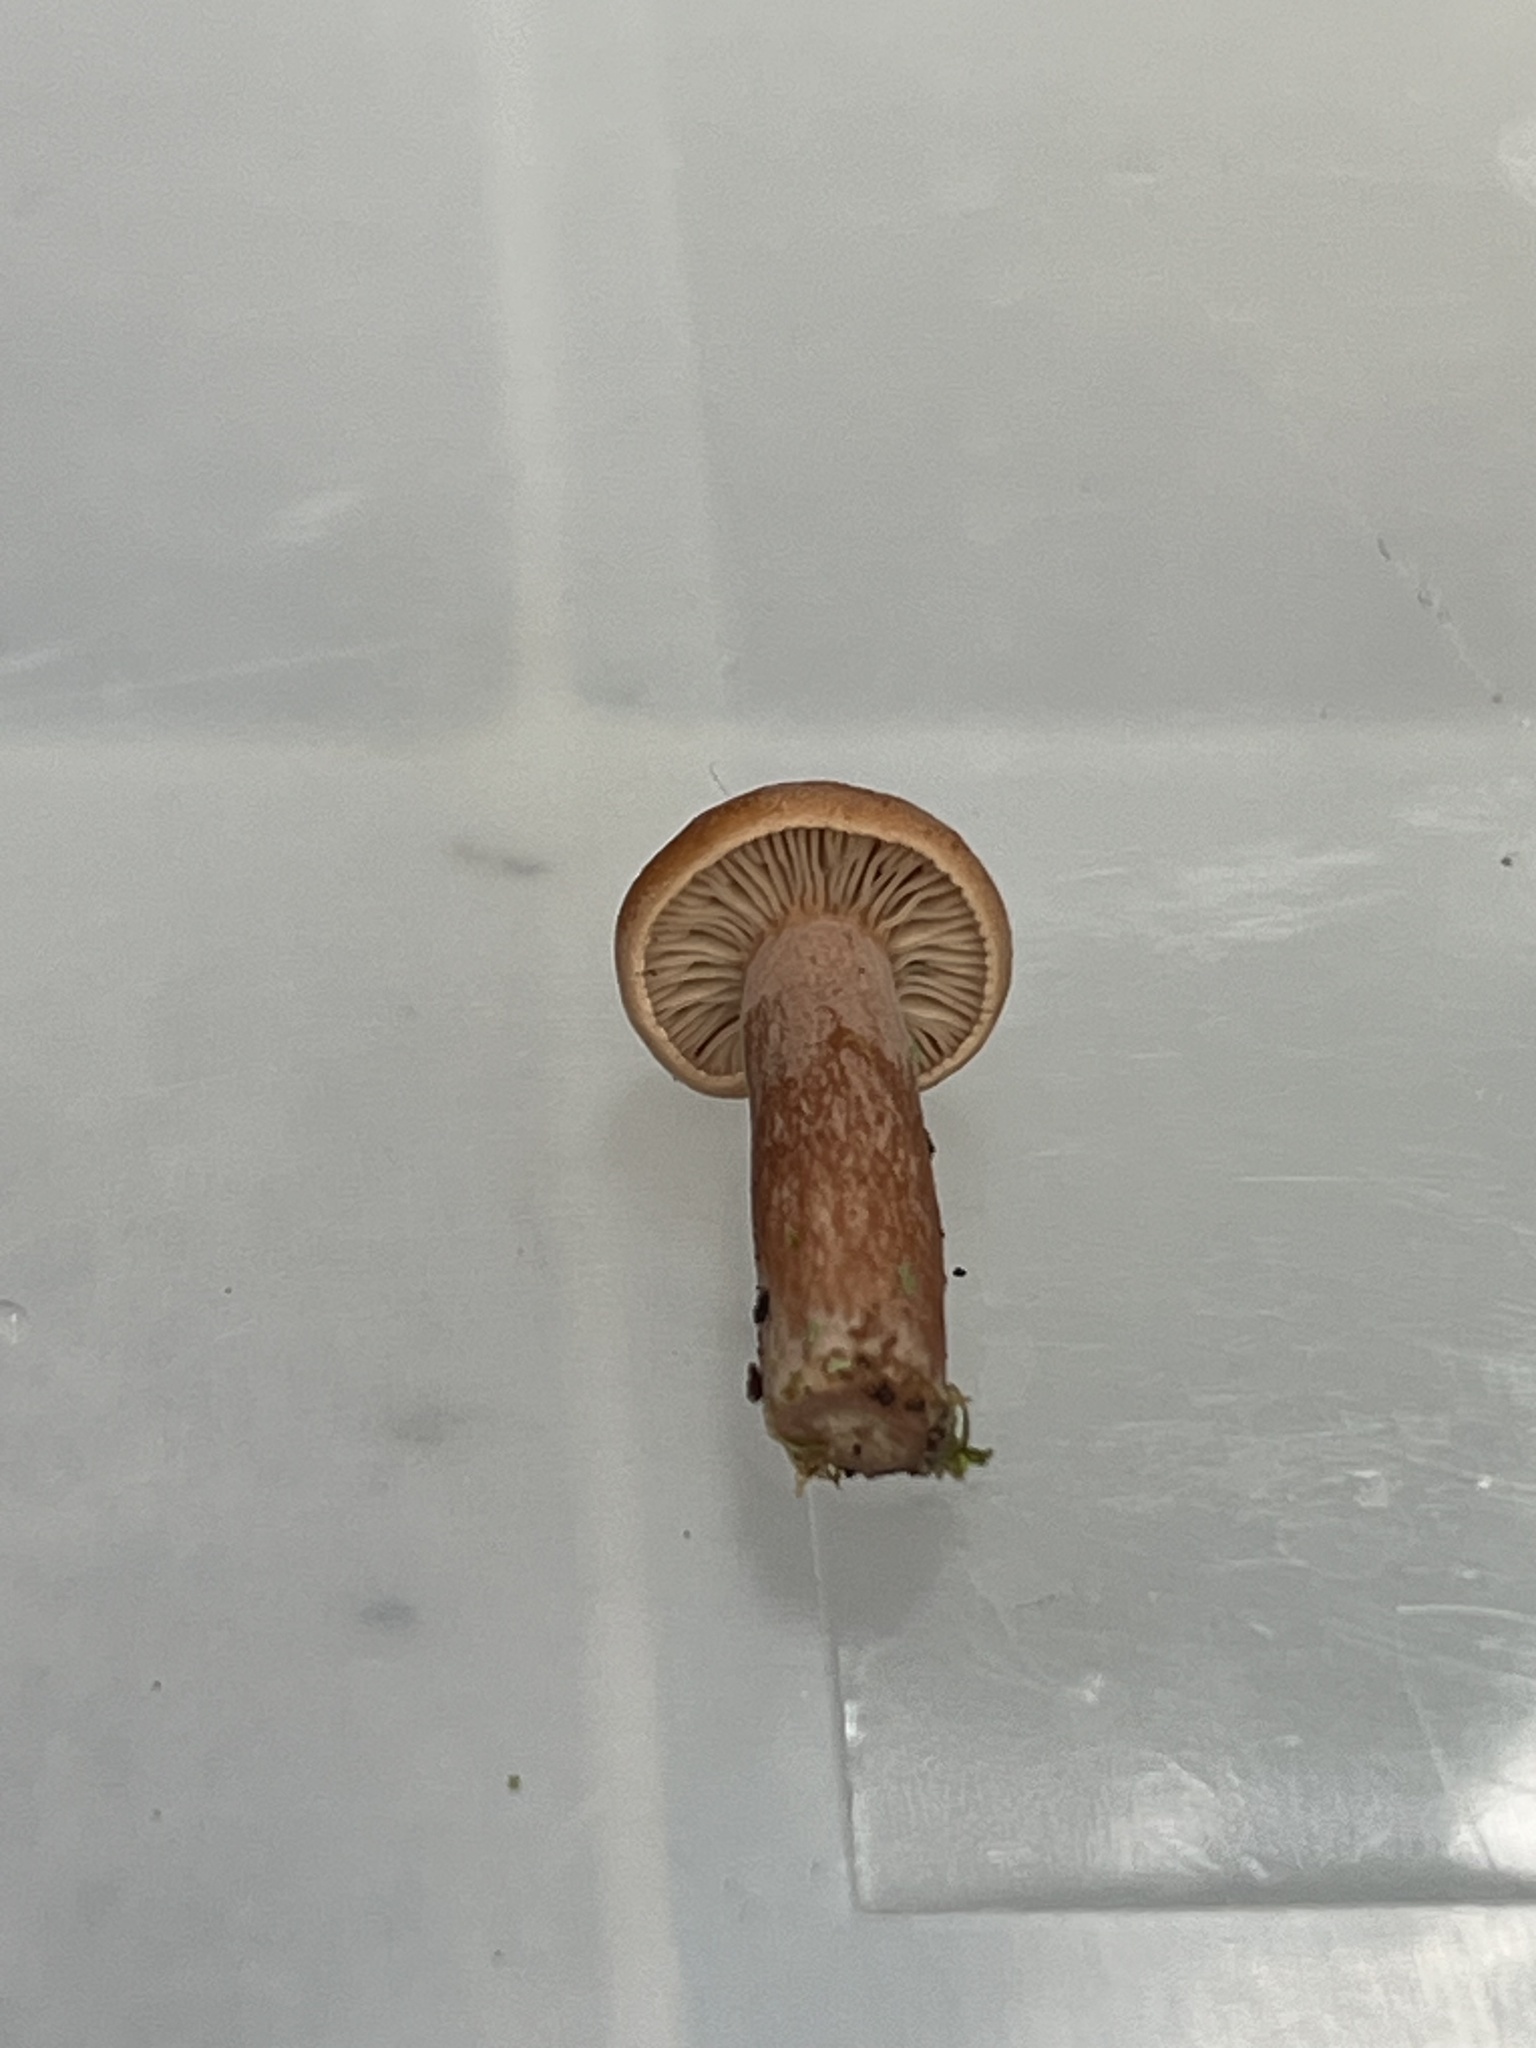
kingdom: Fungi
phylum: Basidiomycota
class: Agaricomycetes
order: Russulales
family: Russulaceae
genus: Lactarius
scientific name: Lactarius subdulcis
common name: Mild milkcap
